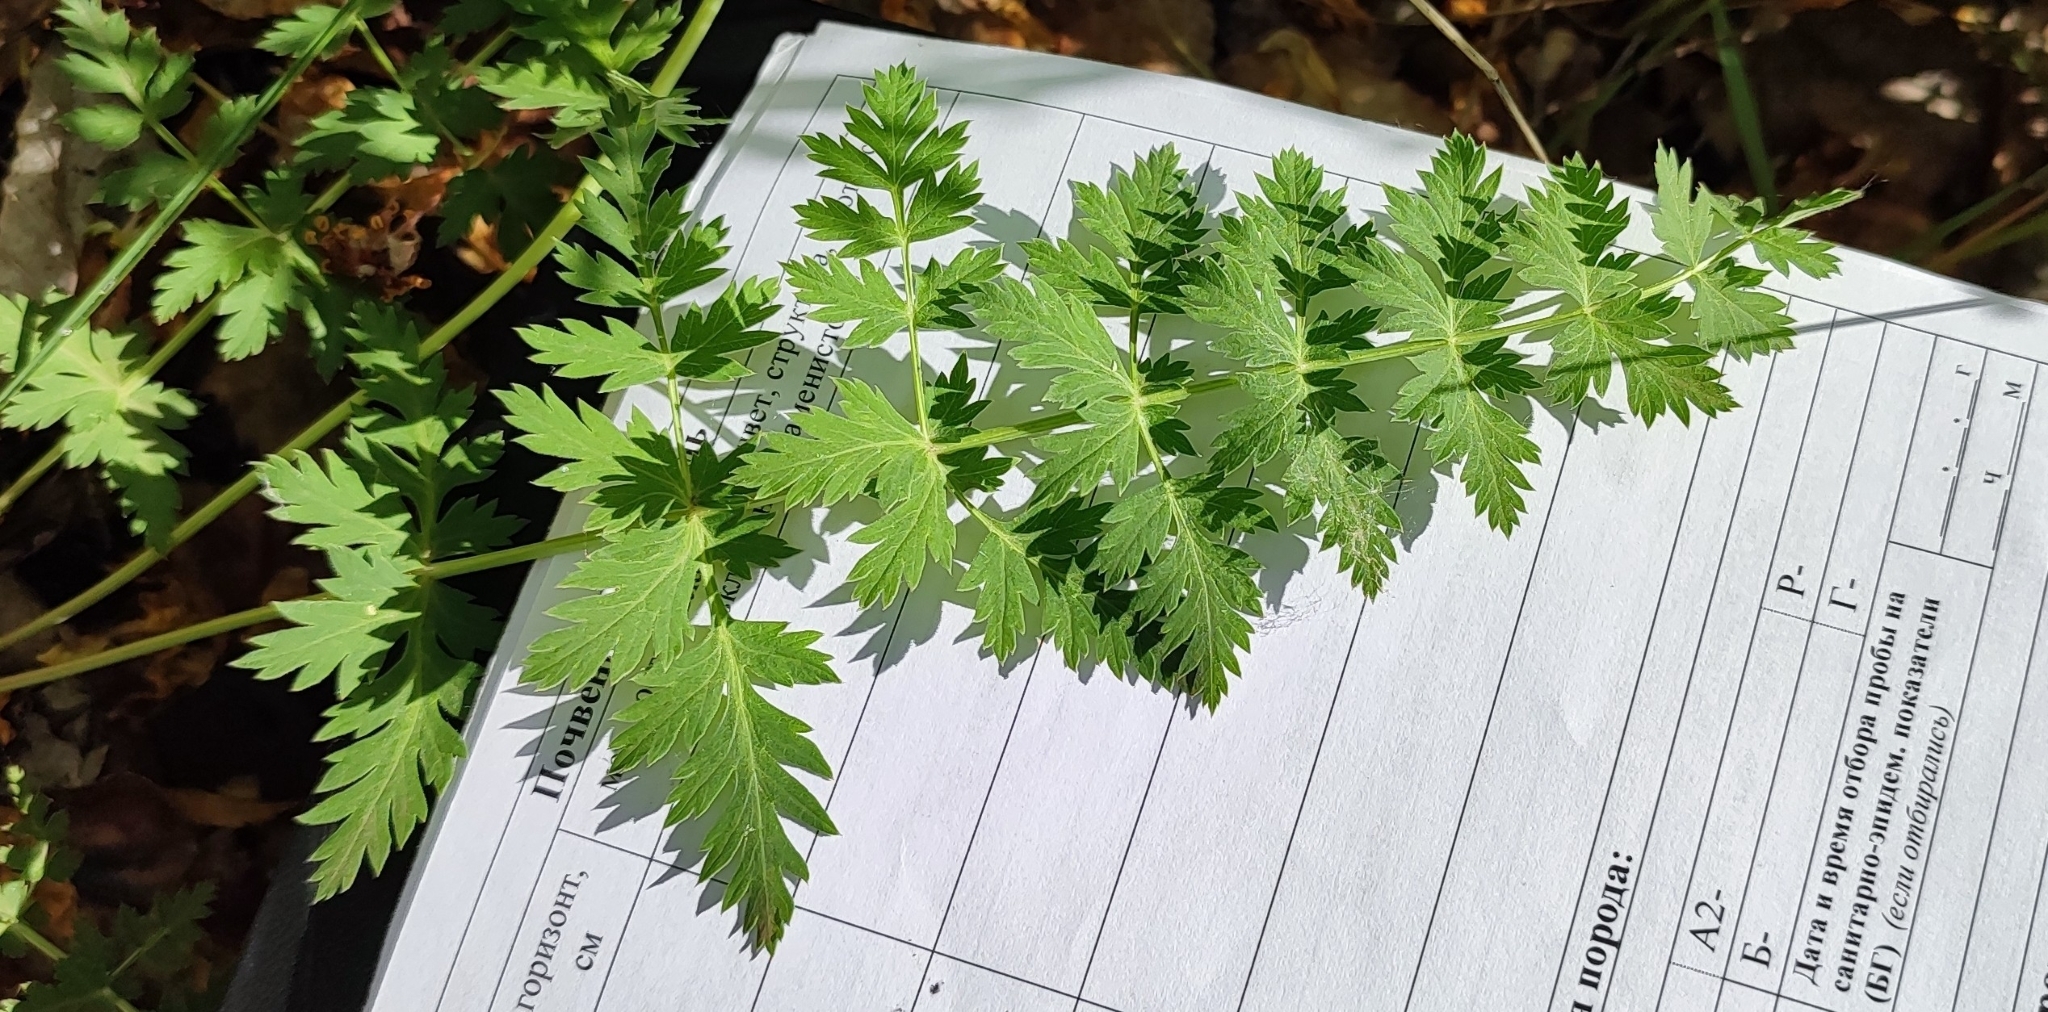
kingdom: Plantae
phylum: Tracheophyta
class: Magnoliopsida
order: Apiales
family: Apiaceae
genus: Seseli
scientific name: Seseli libanotis
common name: Mooncarrot
